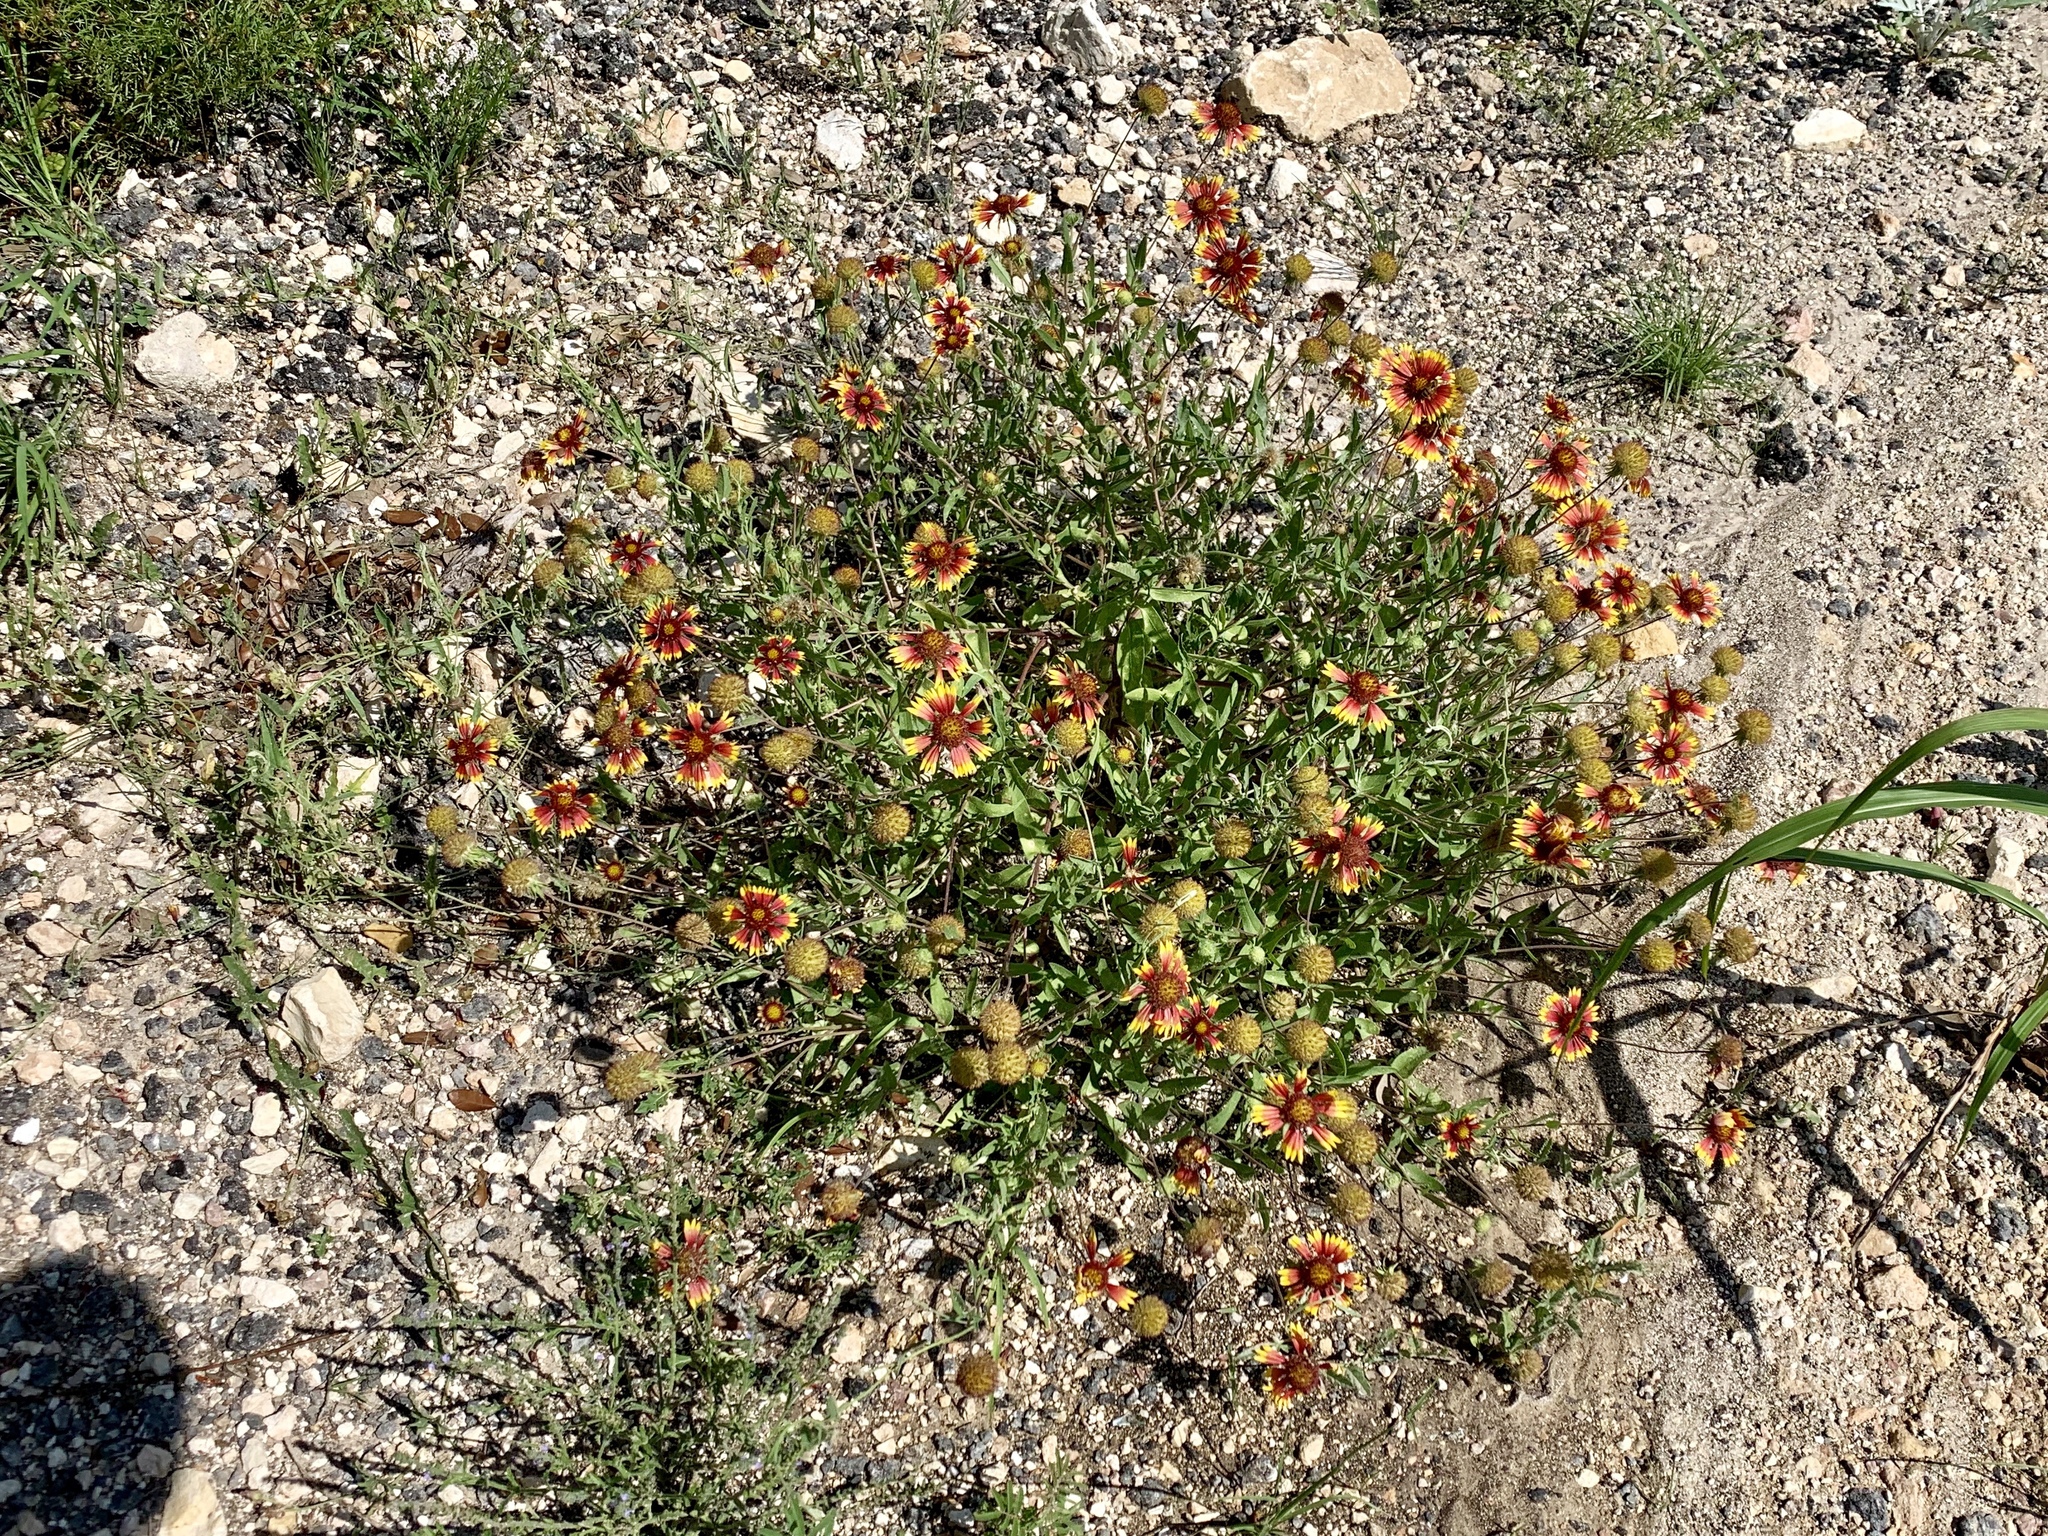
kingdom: Plantae
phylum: Tracheophyta
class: Magnoliopsida
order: Asterales
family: Asteraceae
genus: Gaillardia
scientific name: Gaillardia pulchella
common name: Firewheel
